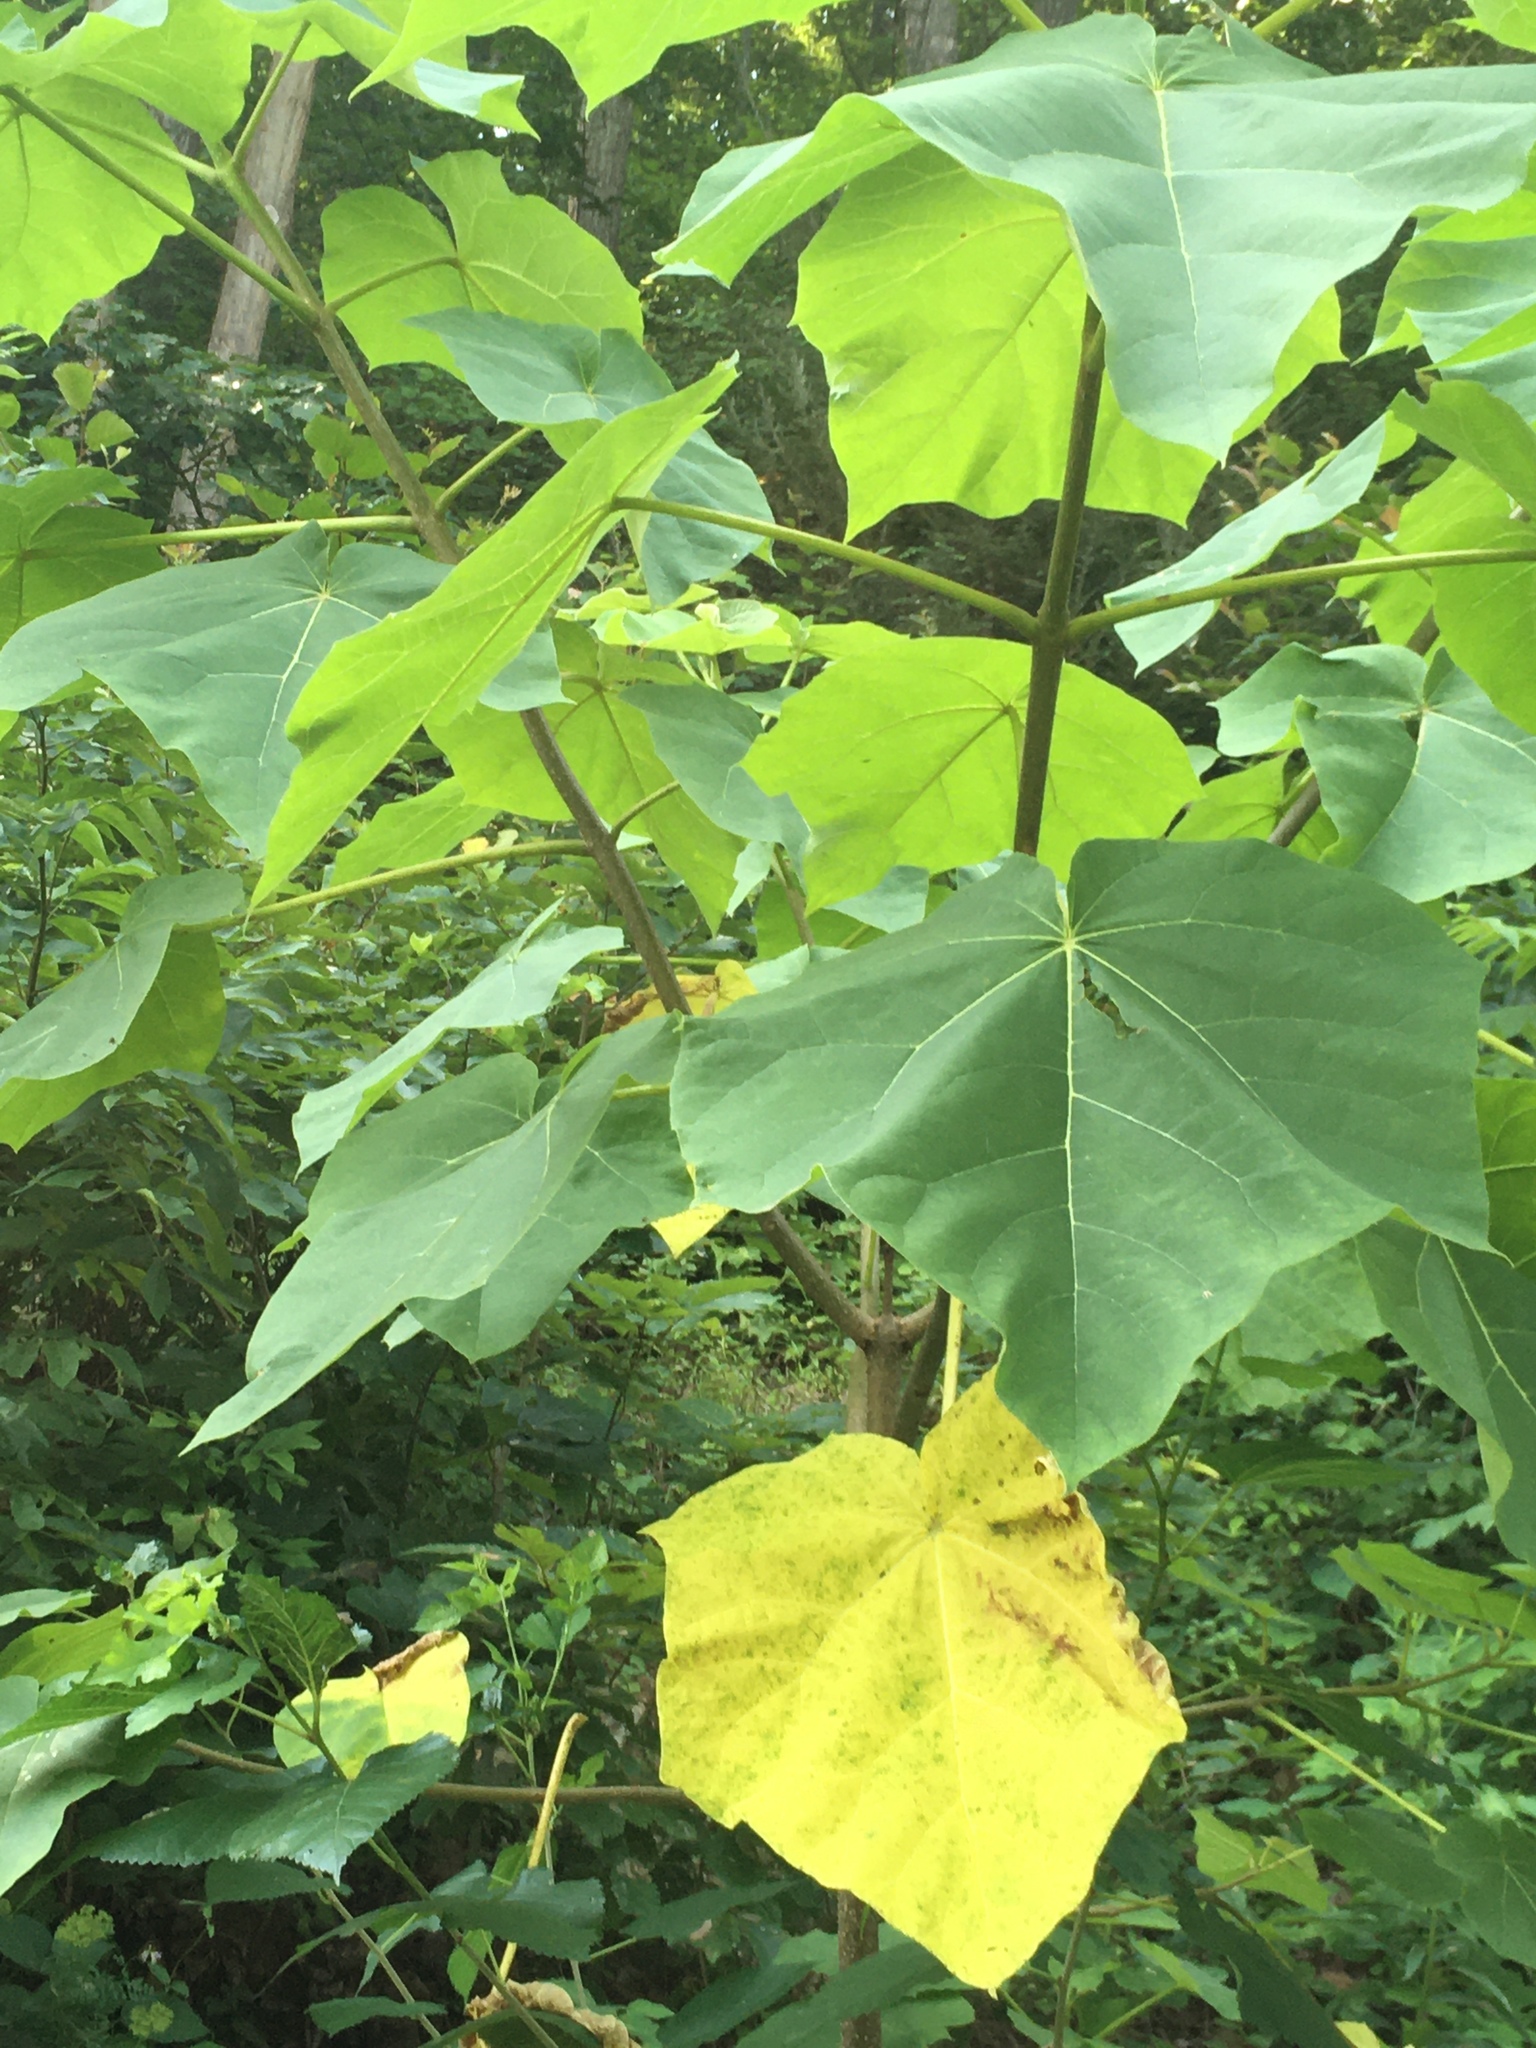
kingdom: Plantae
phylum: Tracheophyta
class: Magnoliopsida
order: Lamiales
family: Paulowniaceae
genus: Paulownia
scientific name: Paulownia tomentosa
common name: Foxglove-tree
